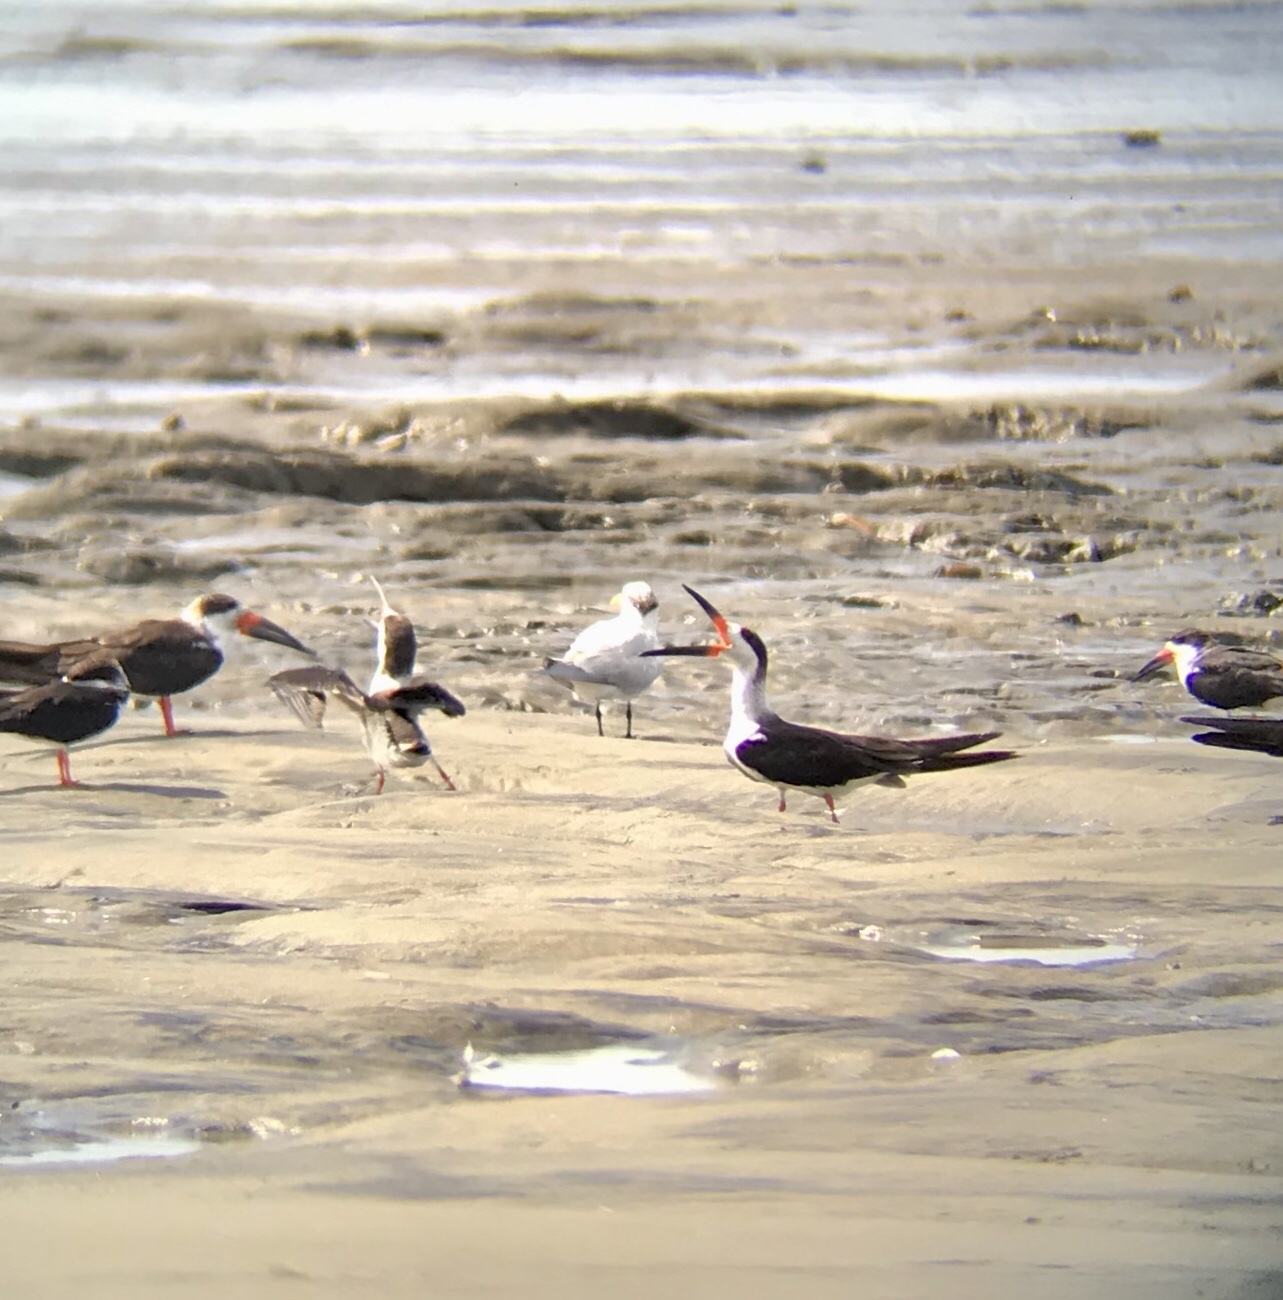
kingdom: Animalia
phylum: Chordata
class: Aves
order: Charadriiformes
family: Laridae
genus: Rynchops
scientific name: Rynchops niger
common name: Black skimmer
